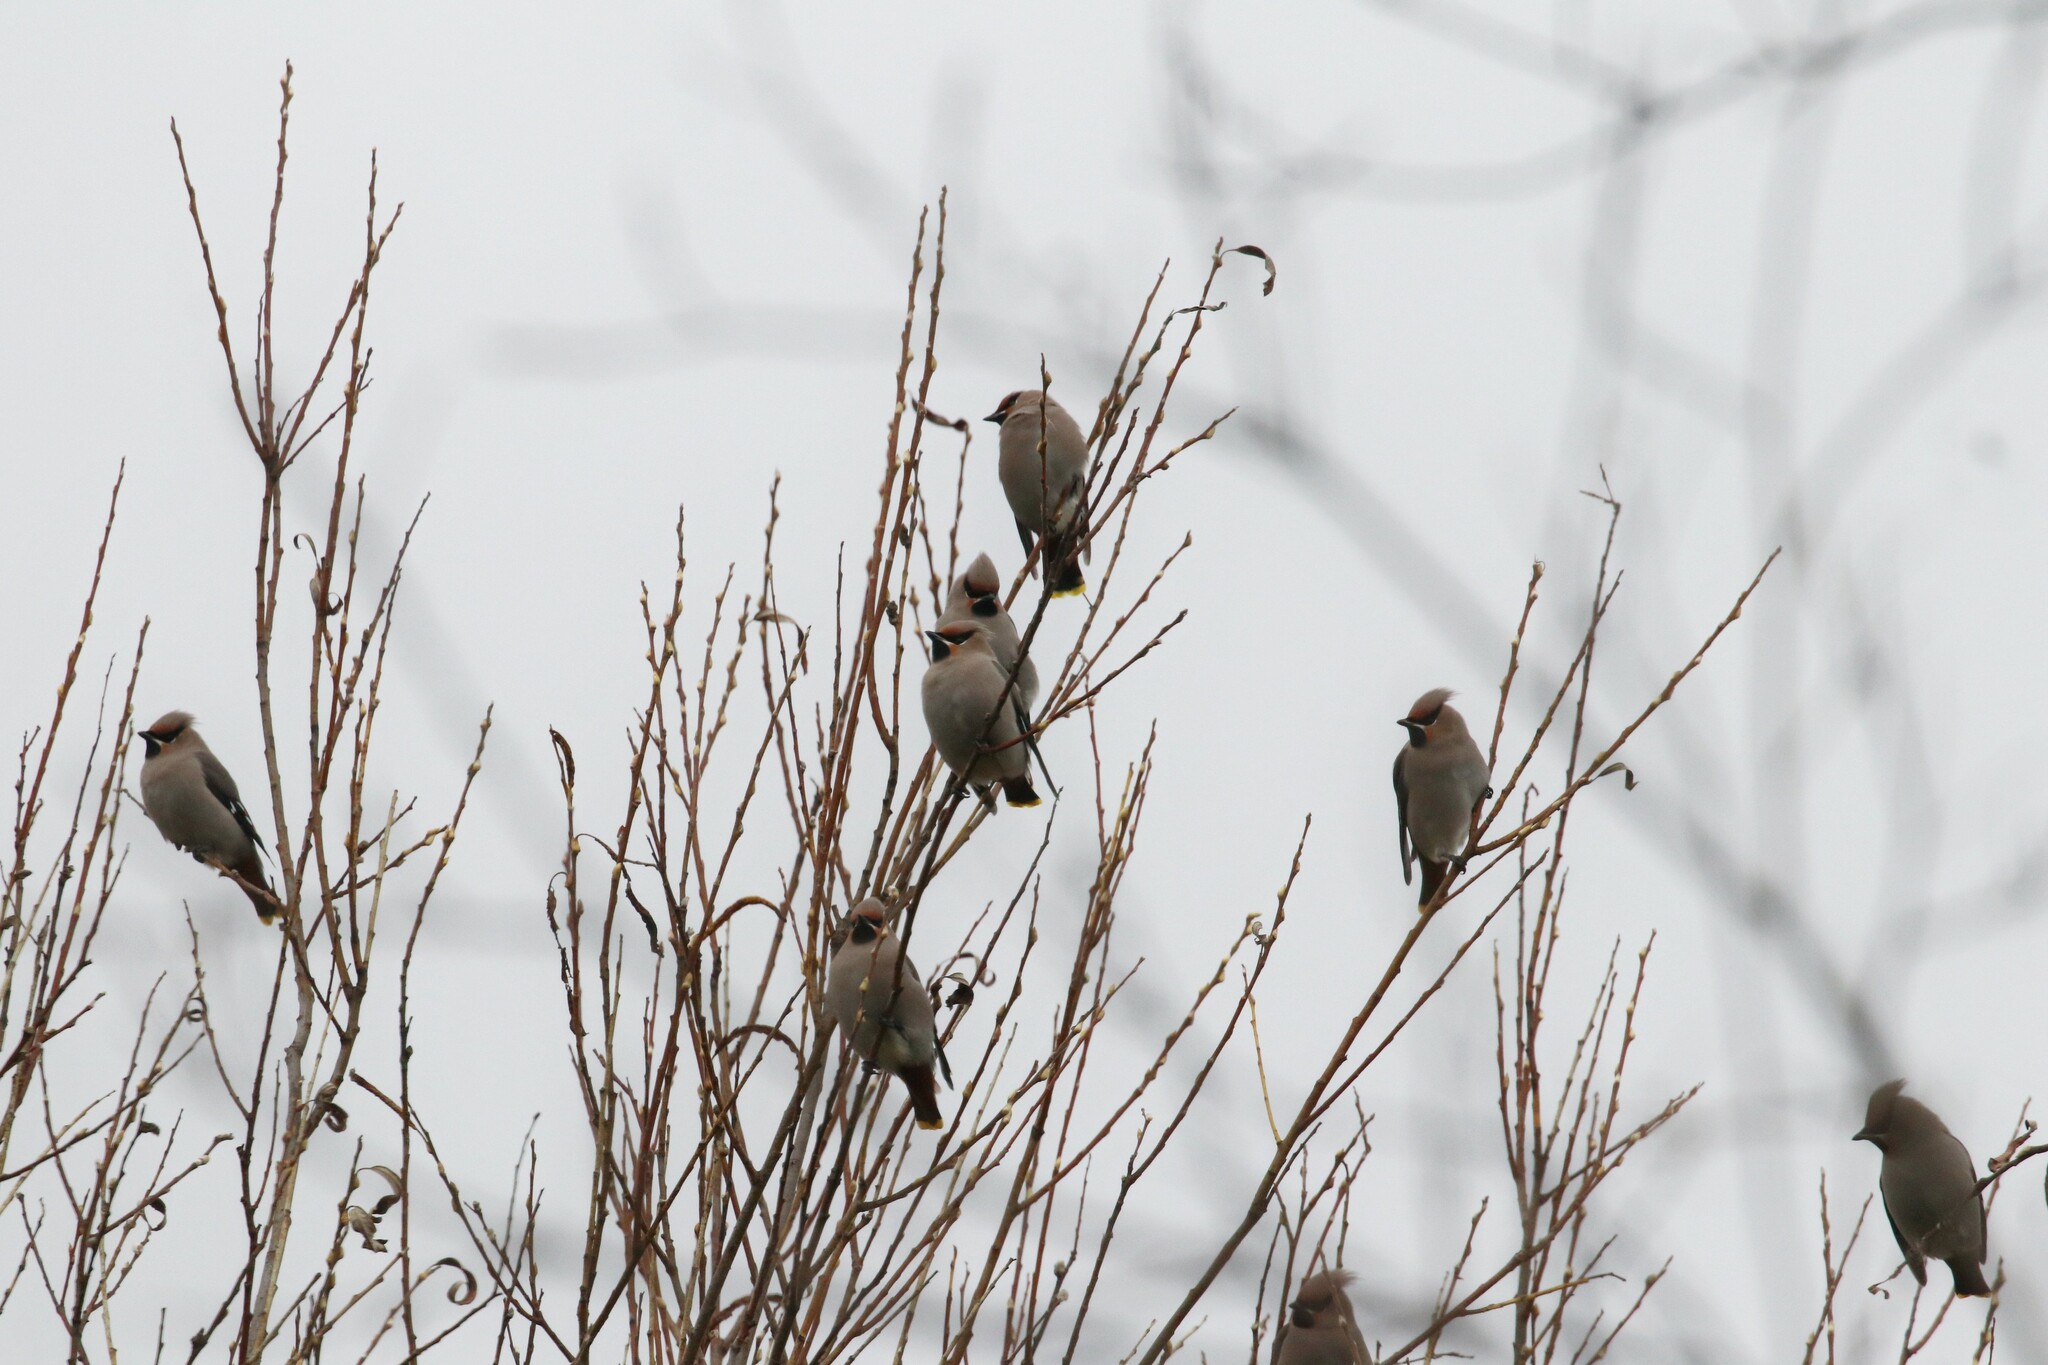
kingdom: Animalia
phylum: Chordata
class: Aves
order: Passeriformes
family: Bombycillidae
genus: Bombycilla
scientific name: Bombycilla garrulus
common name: Bohemian waxwing
